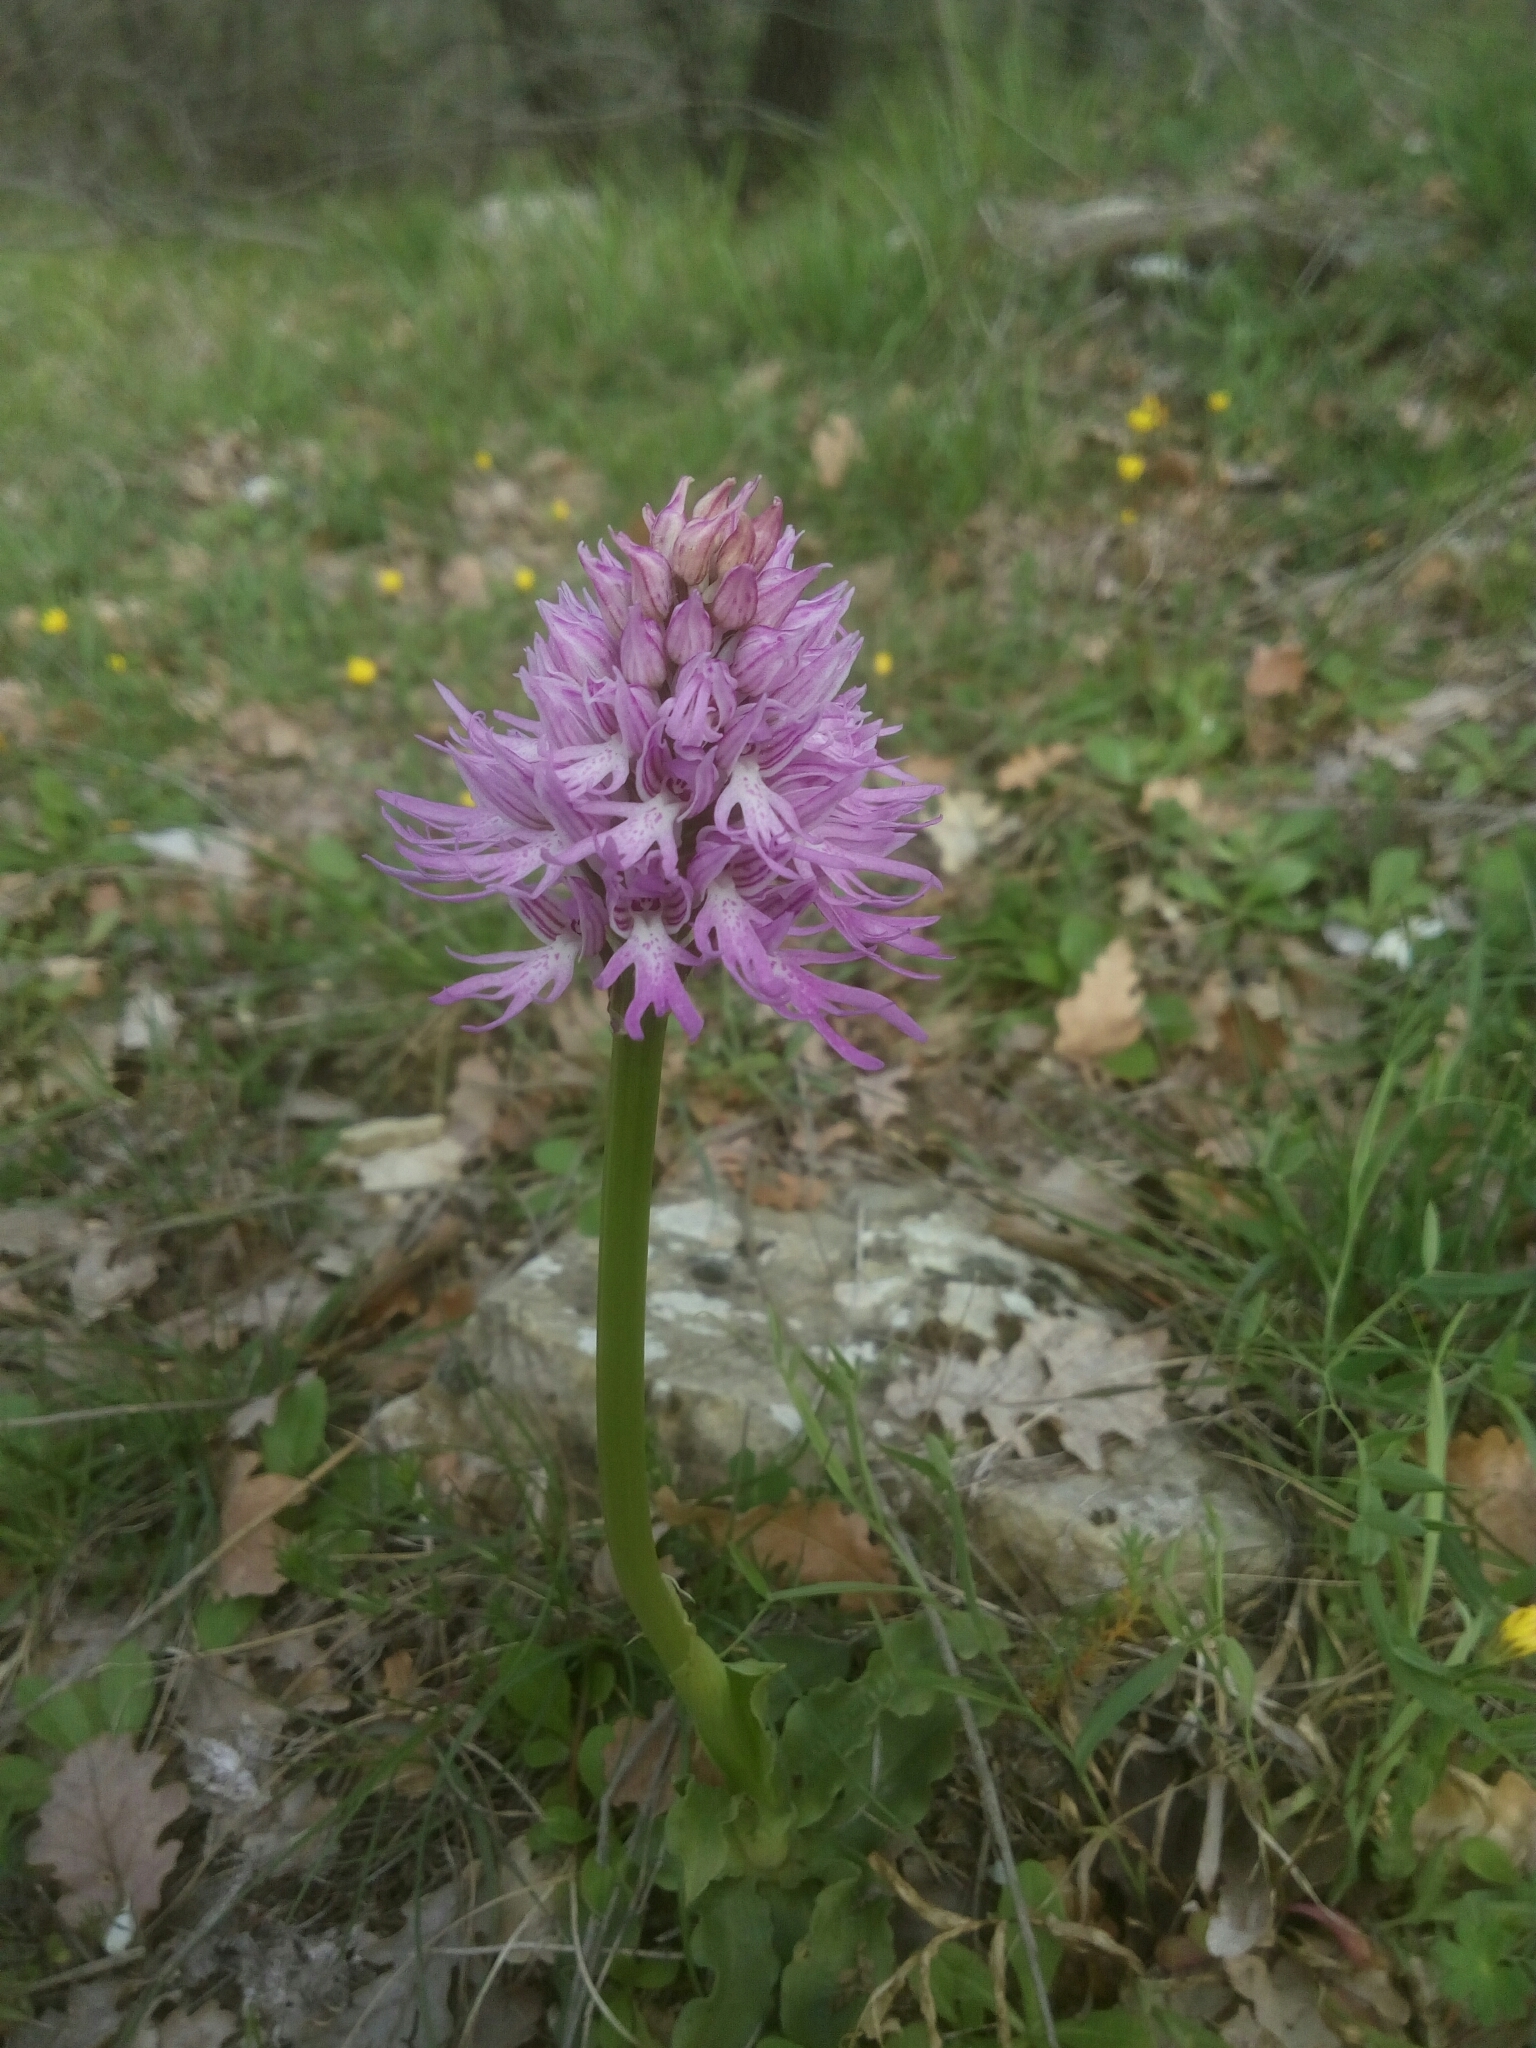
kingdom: Plantae
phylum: Tracheophyta
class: Liliopsida
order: Asparagales
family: Orchidaceae
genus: Orchis
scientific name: Orchis italica
